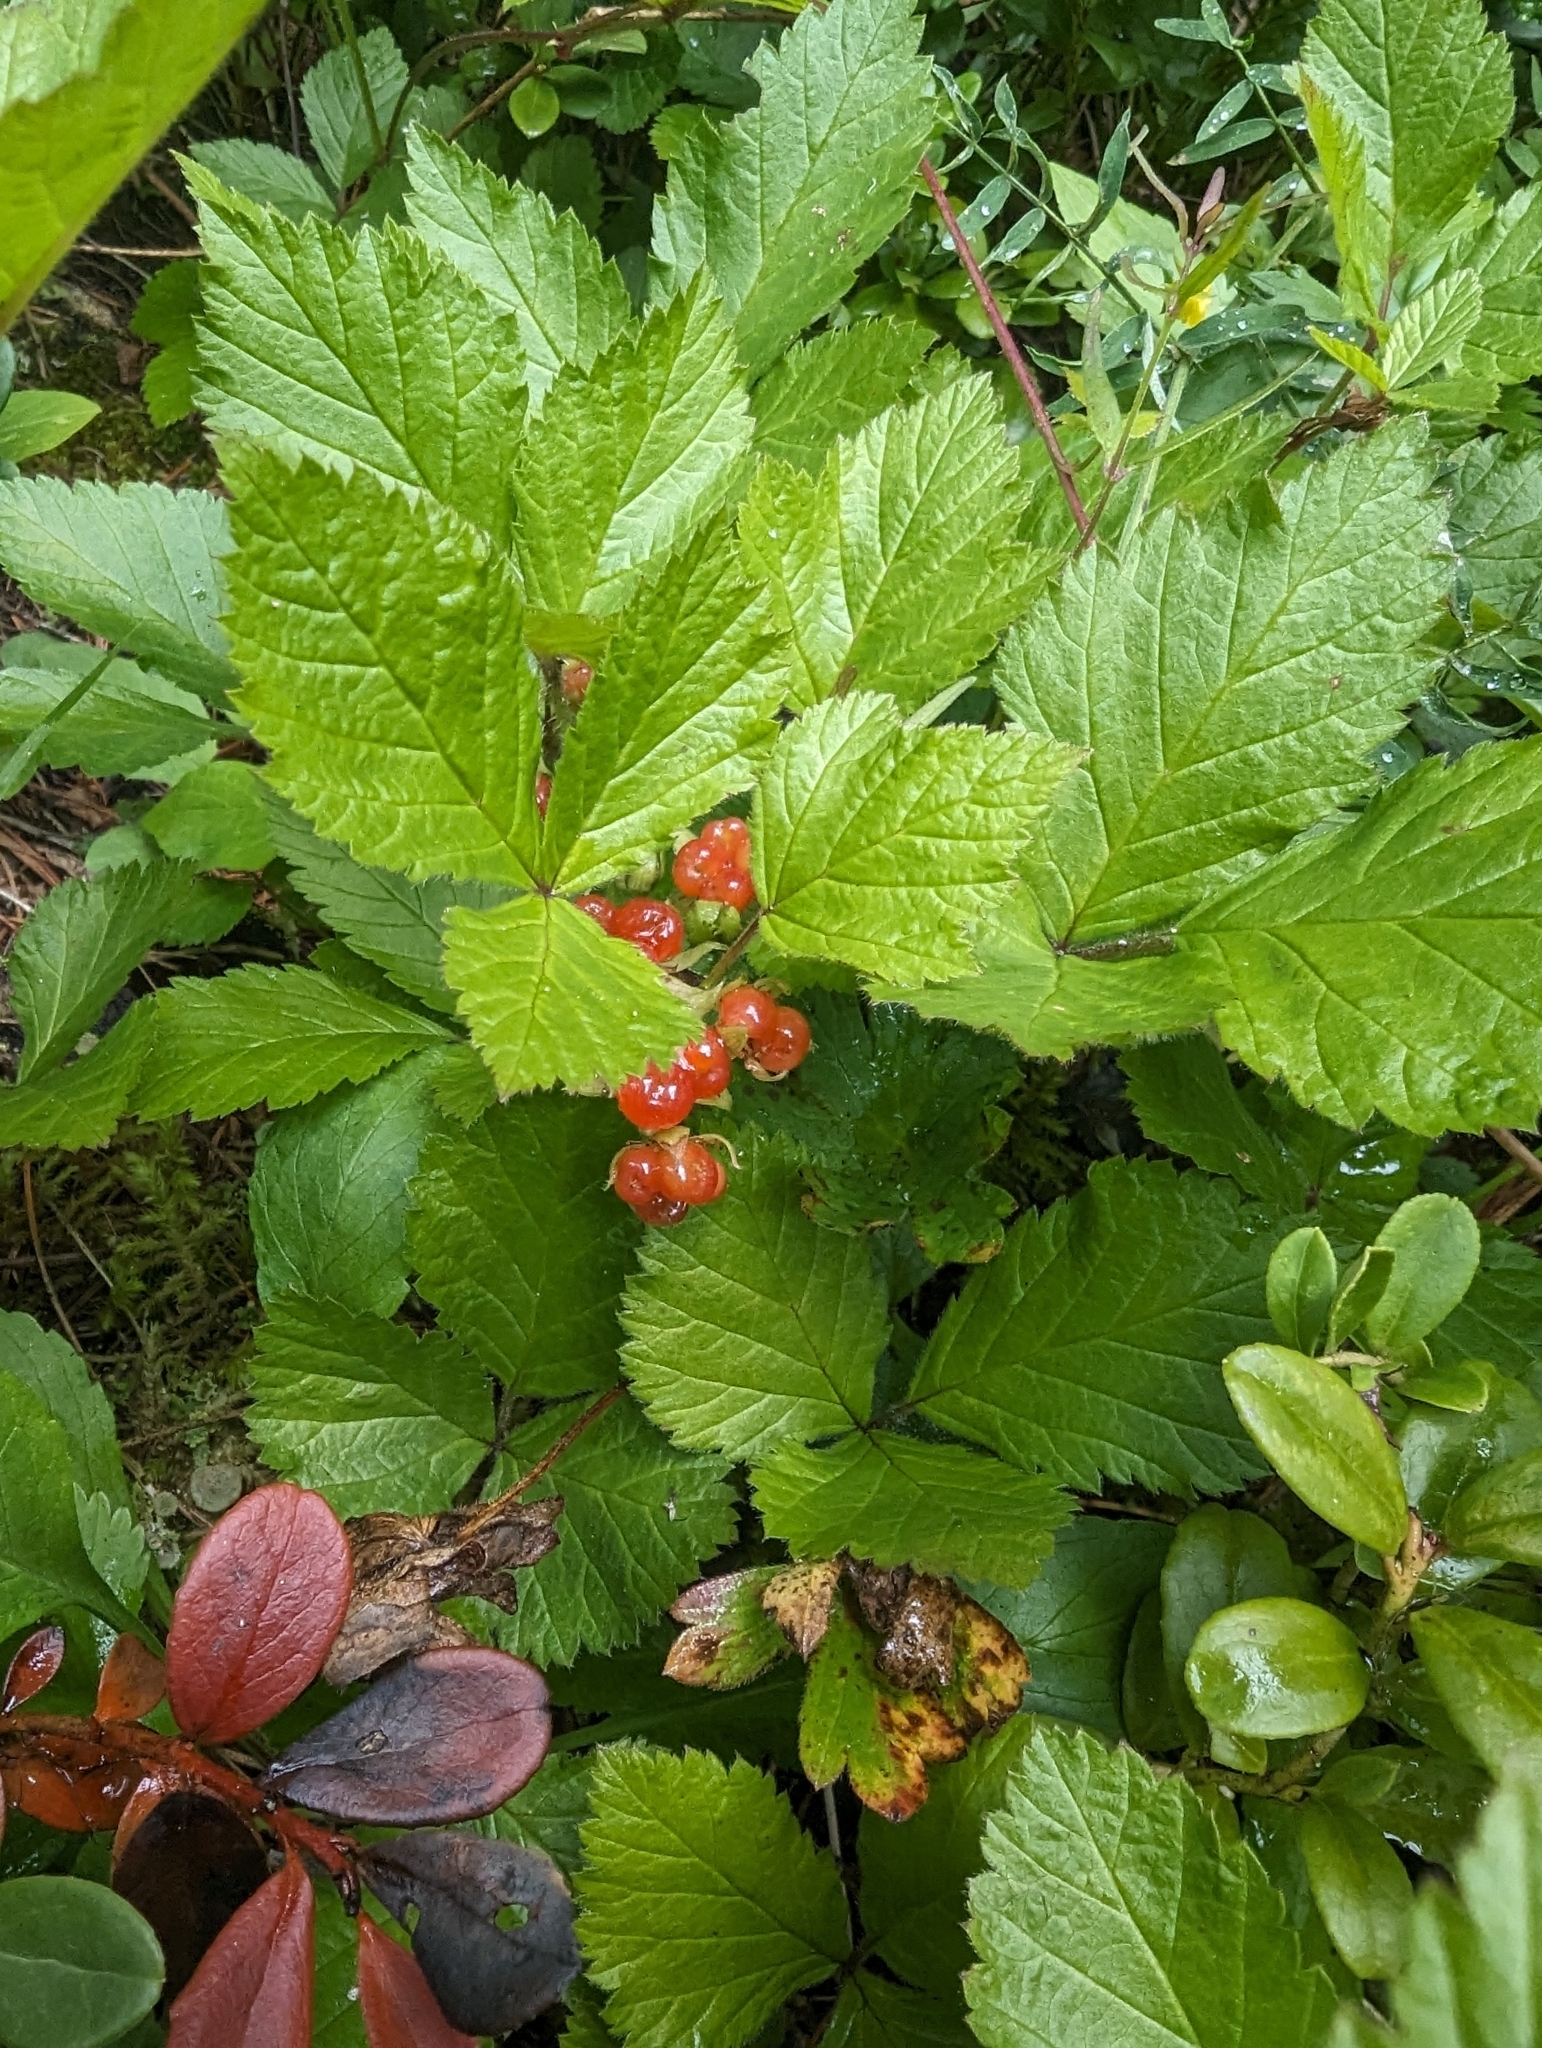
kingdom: Plantae
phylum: Tracheophyta
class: Magnoliopsida
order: Rosales
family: Rosaceae
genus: Rubus
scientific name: Rubus saxatilis
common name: Stone bramble
